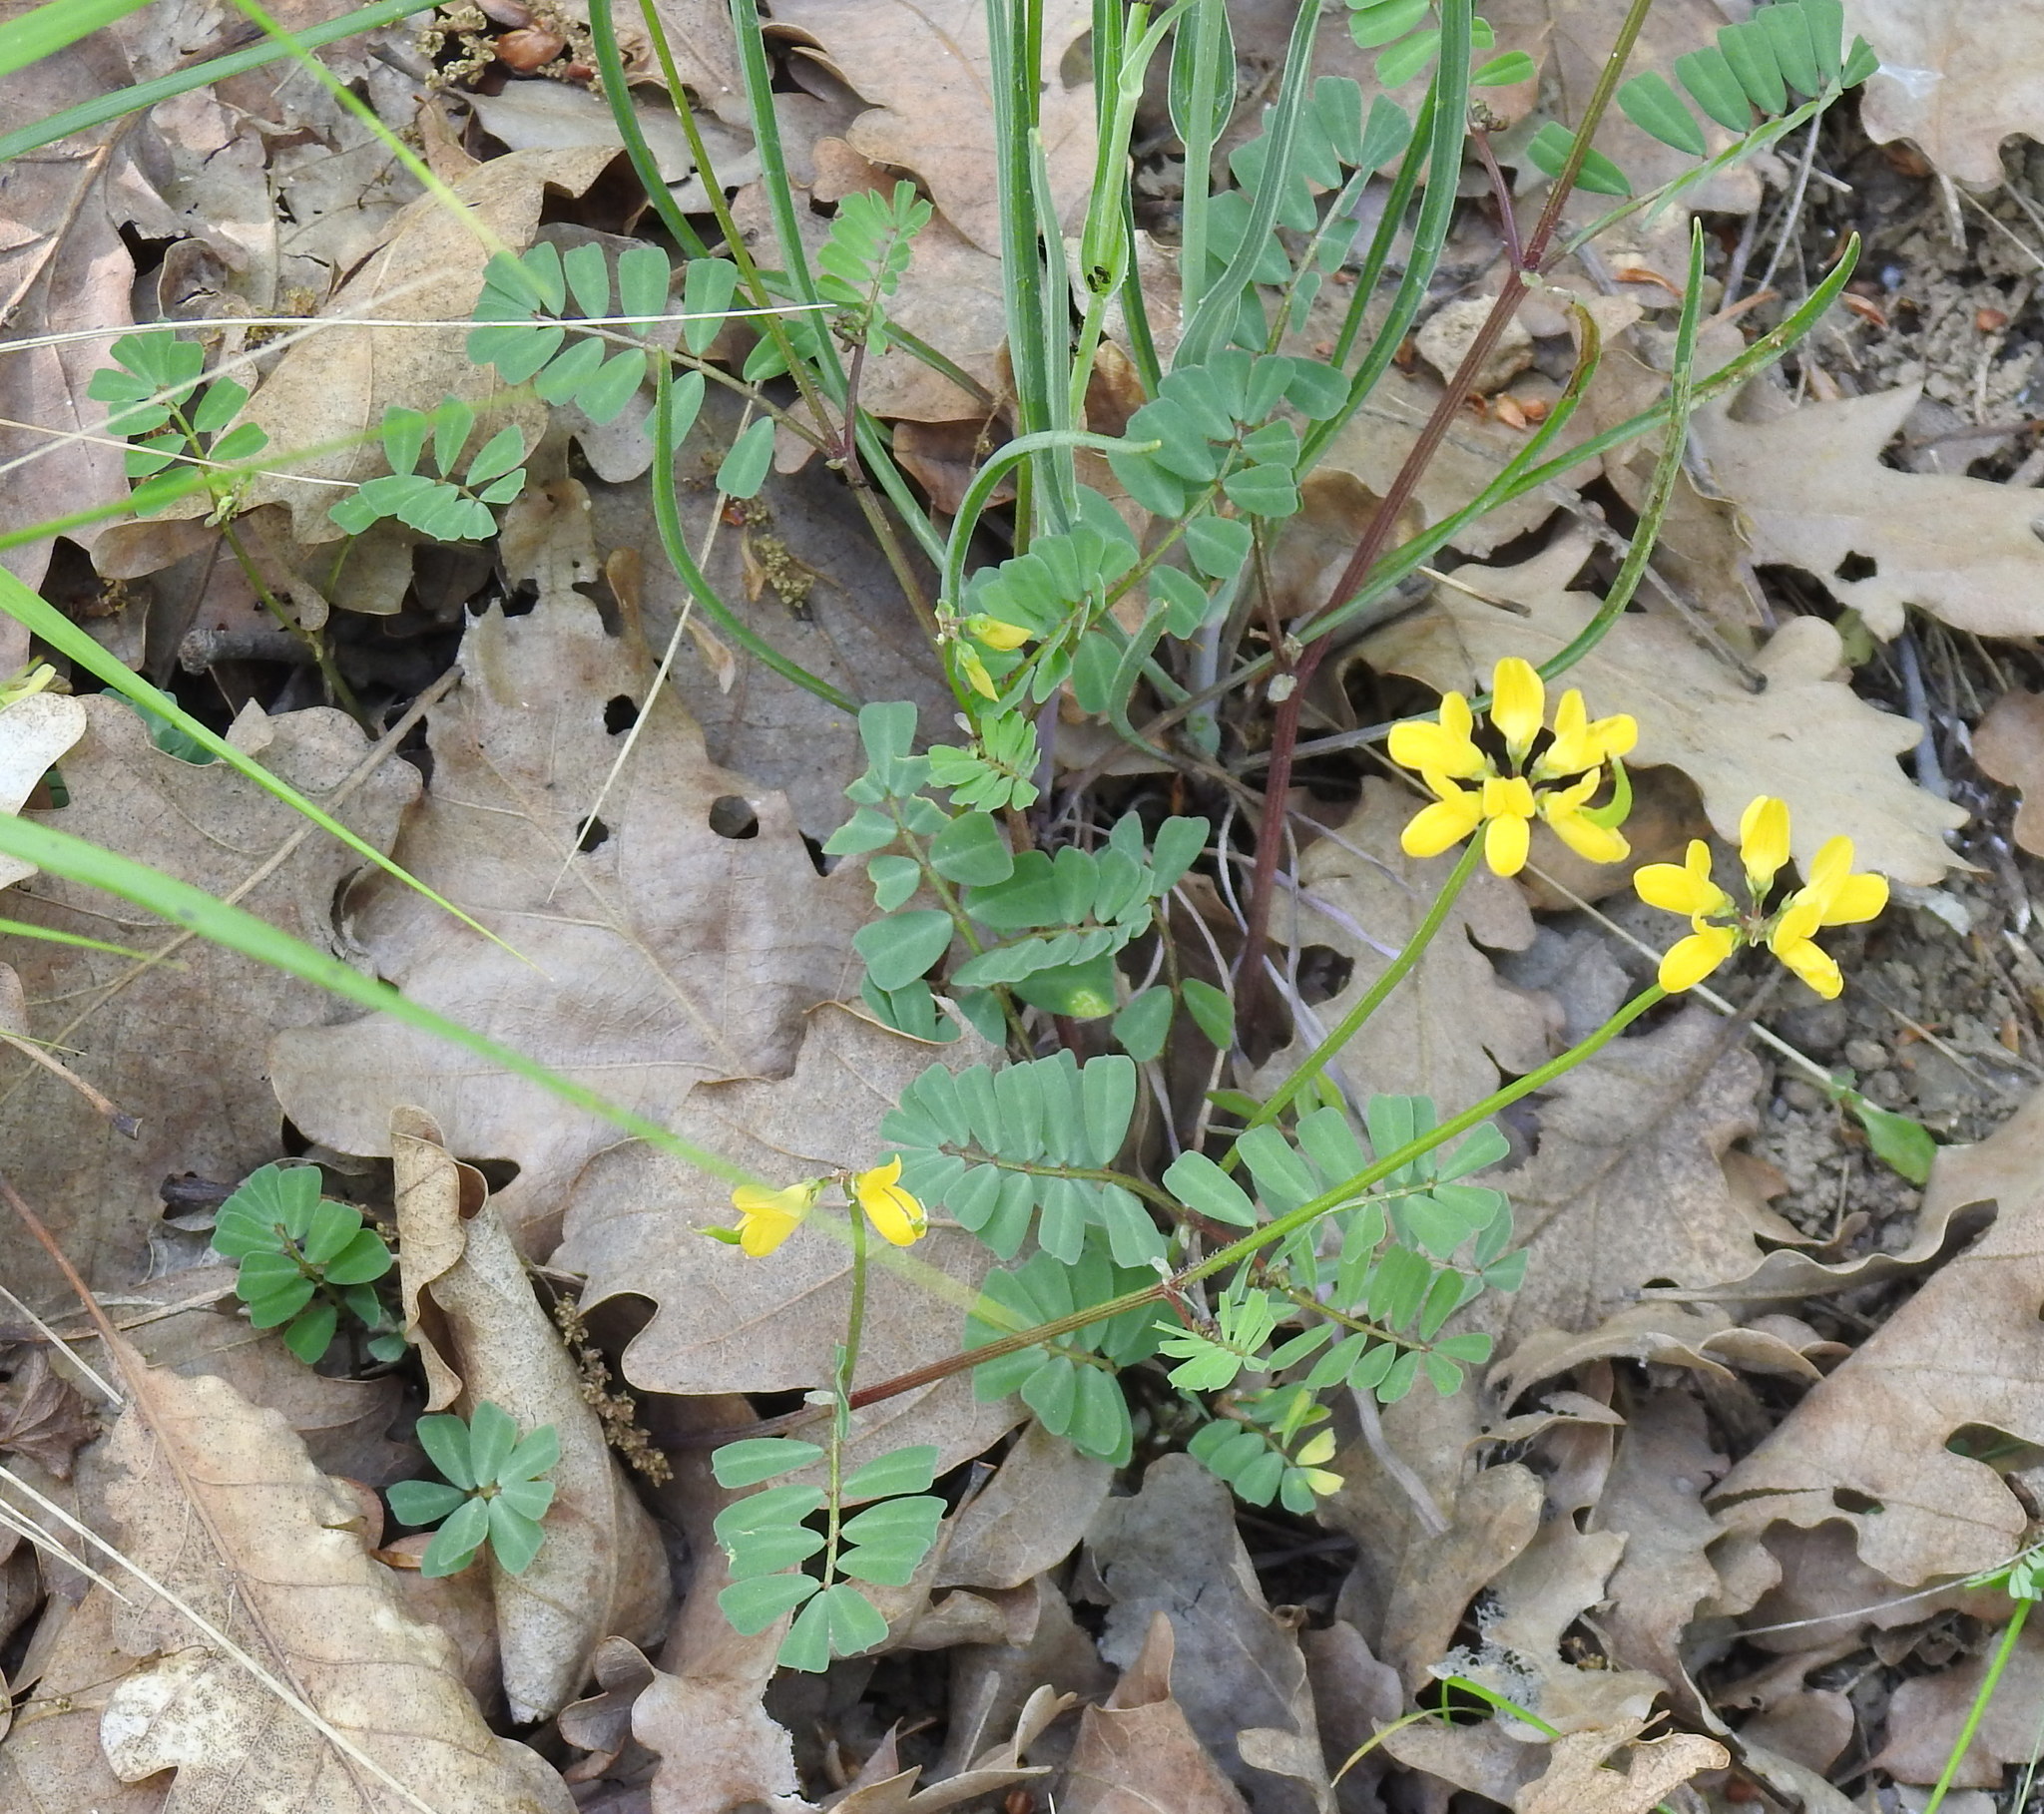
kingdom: Plantae
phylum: Tracheophyta
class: Magnoliopsida
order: Fabales
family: Fabaceae
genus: Coronilla
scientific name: Coronilla coronata
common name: Scorpion-vetch
